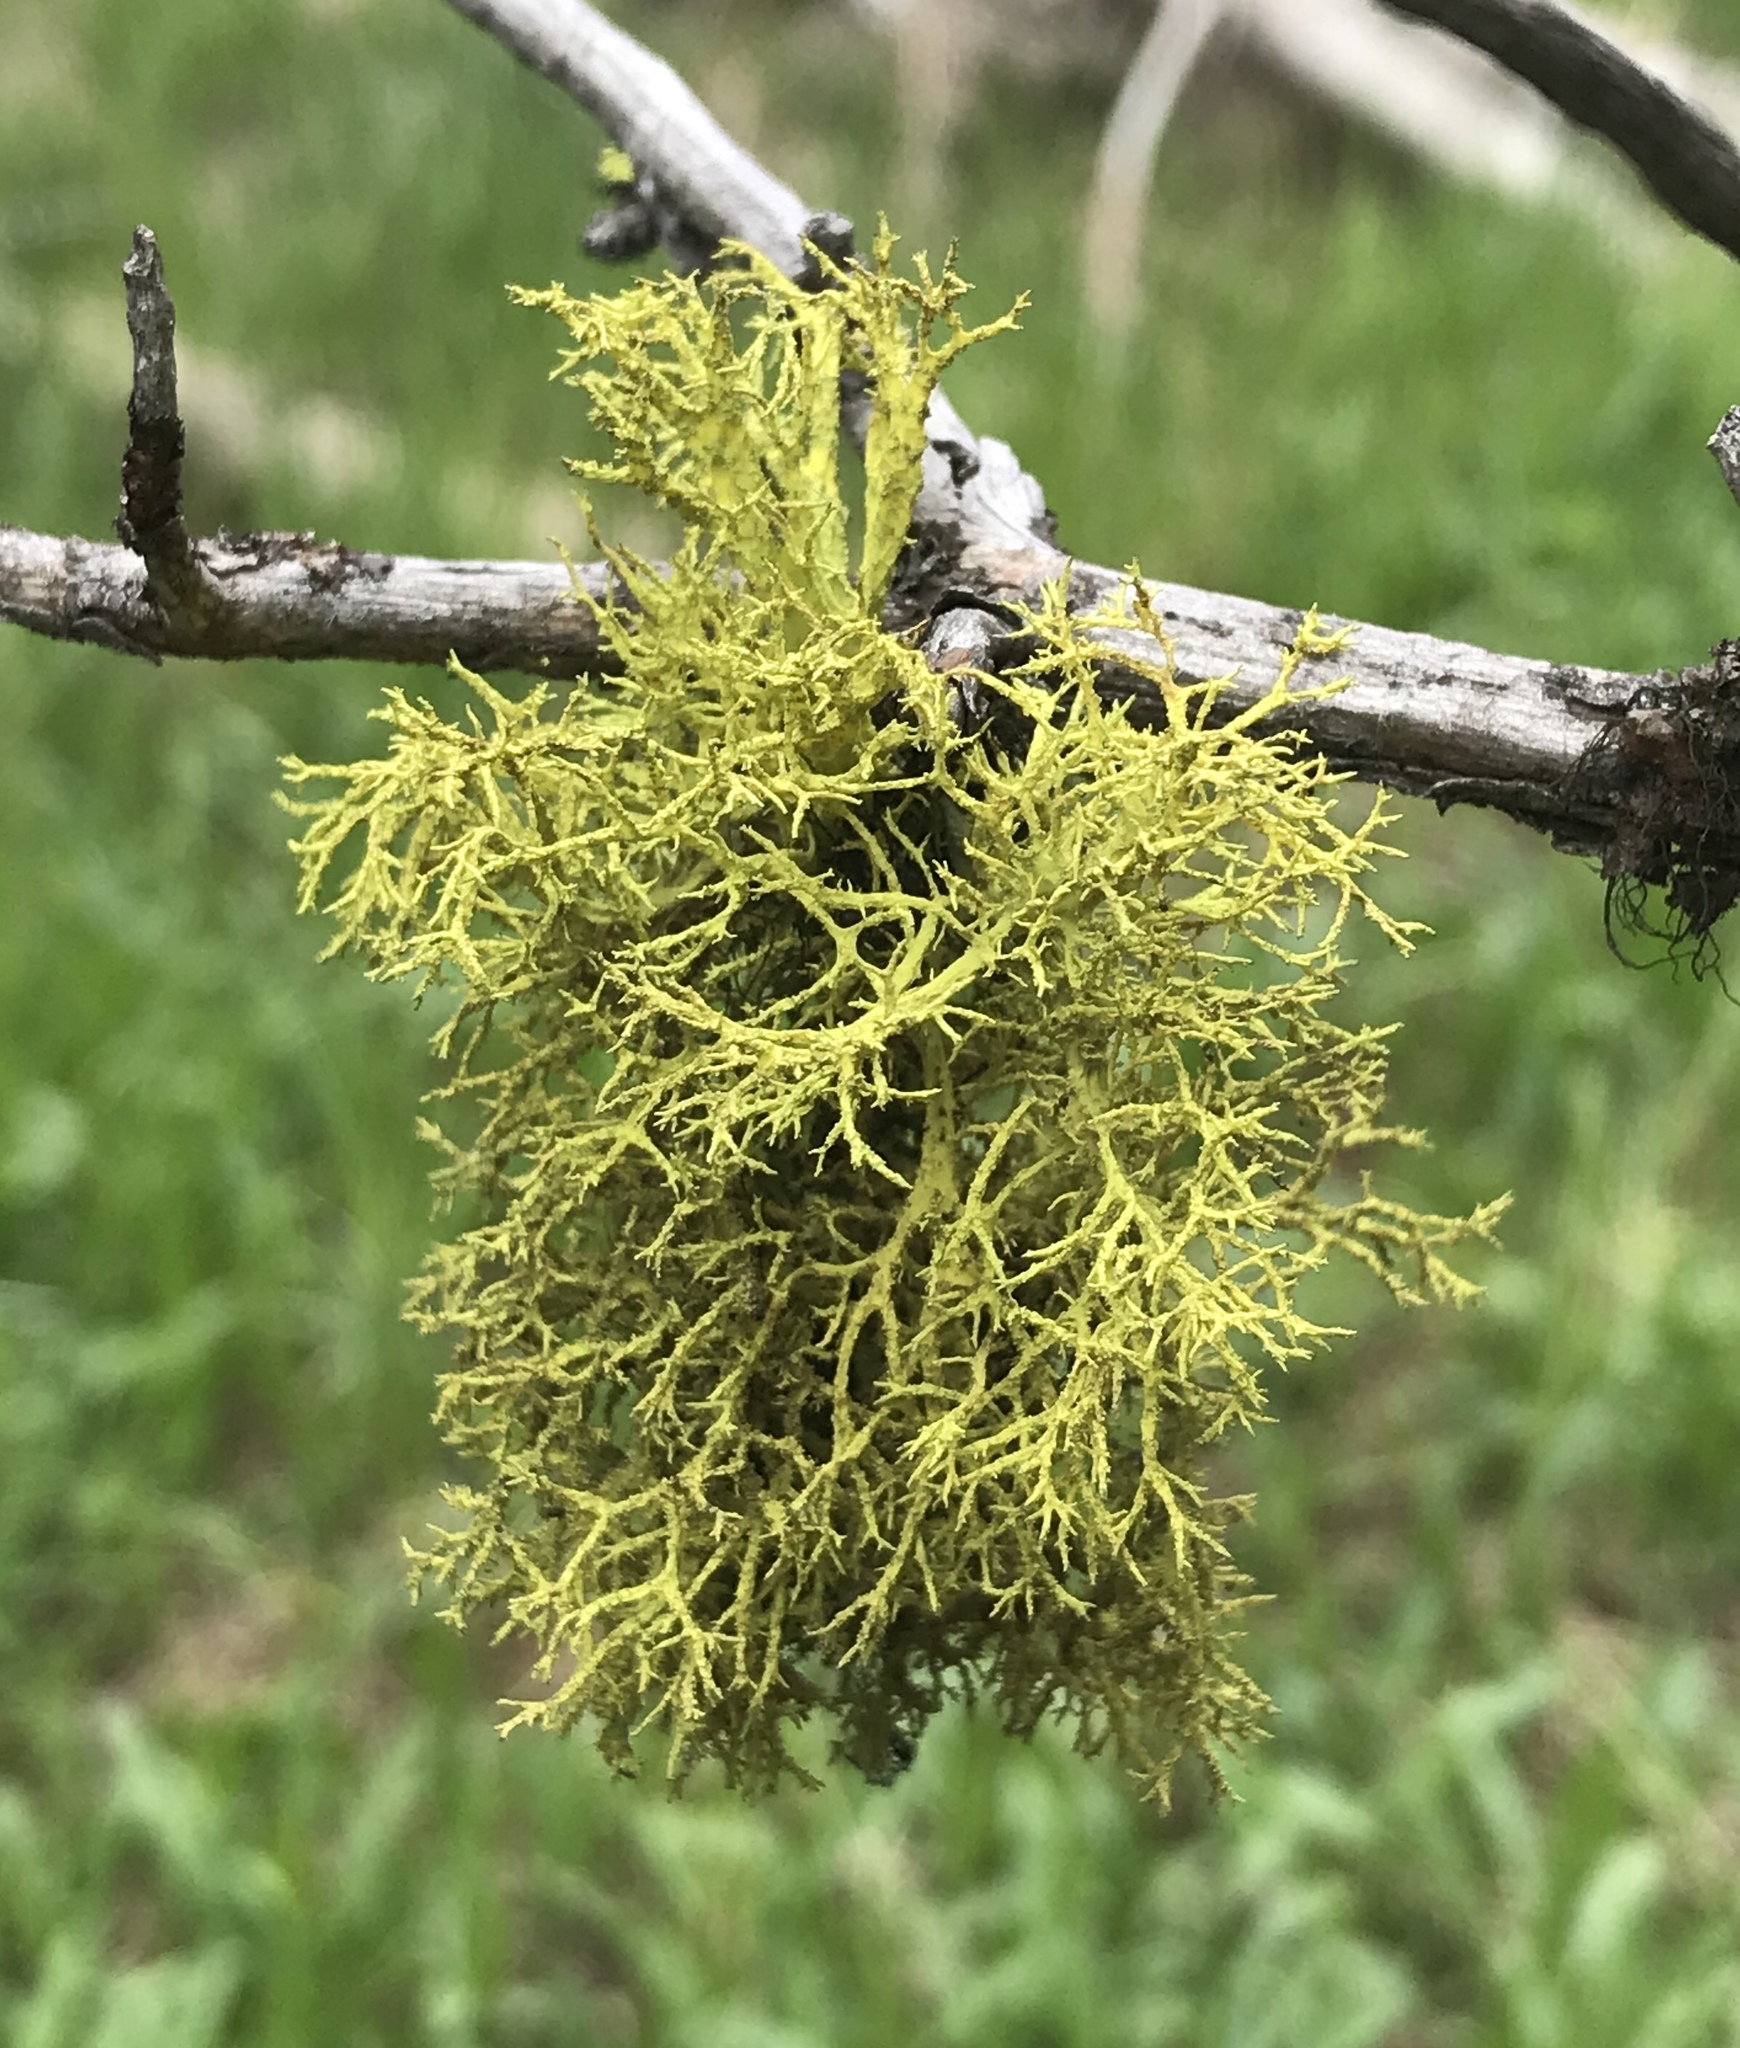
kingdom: Fungi
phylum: Ascomycota
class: Lecanoromycetes
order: Lecanorales
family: Parmeliaceae
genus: Letharia
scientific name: Letharia vulpina
